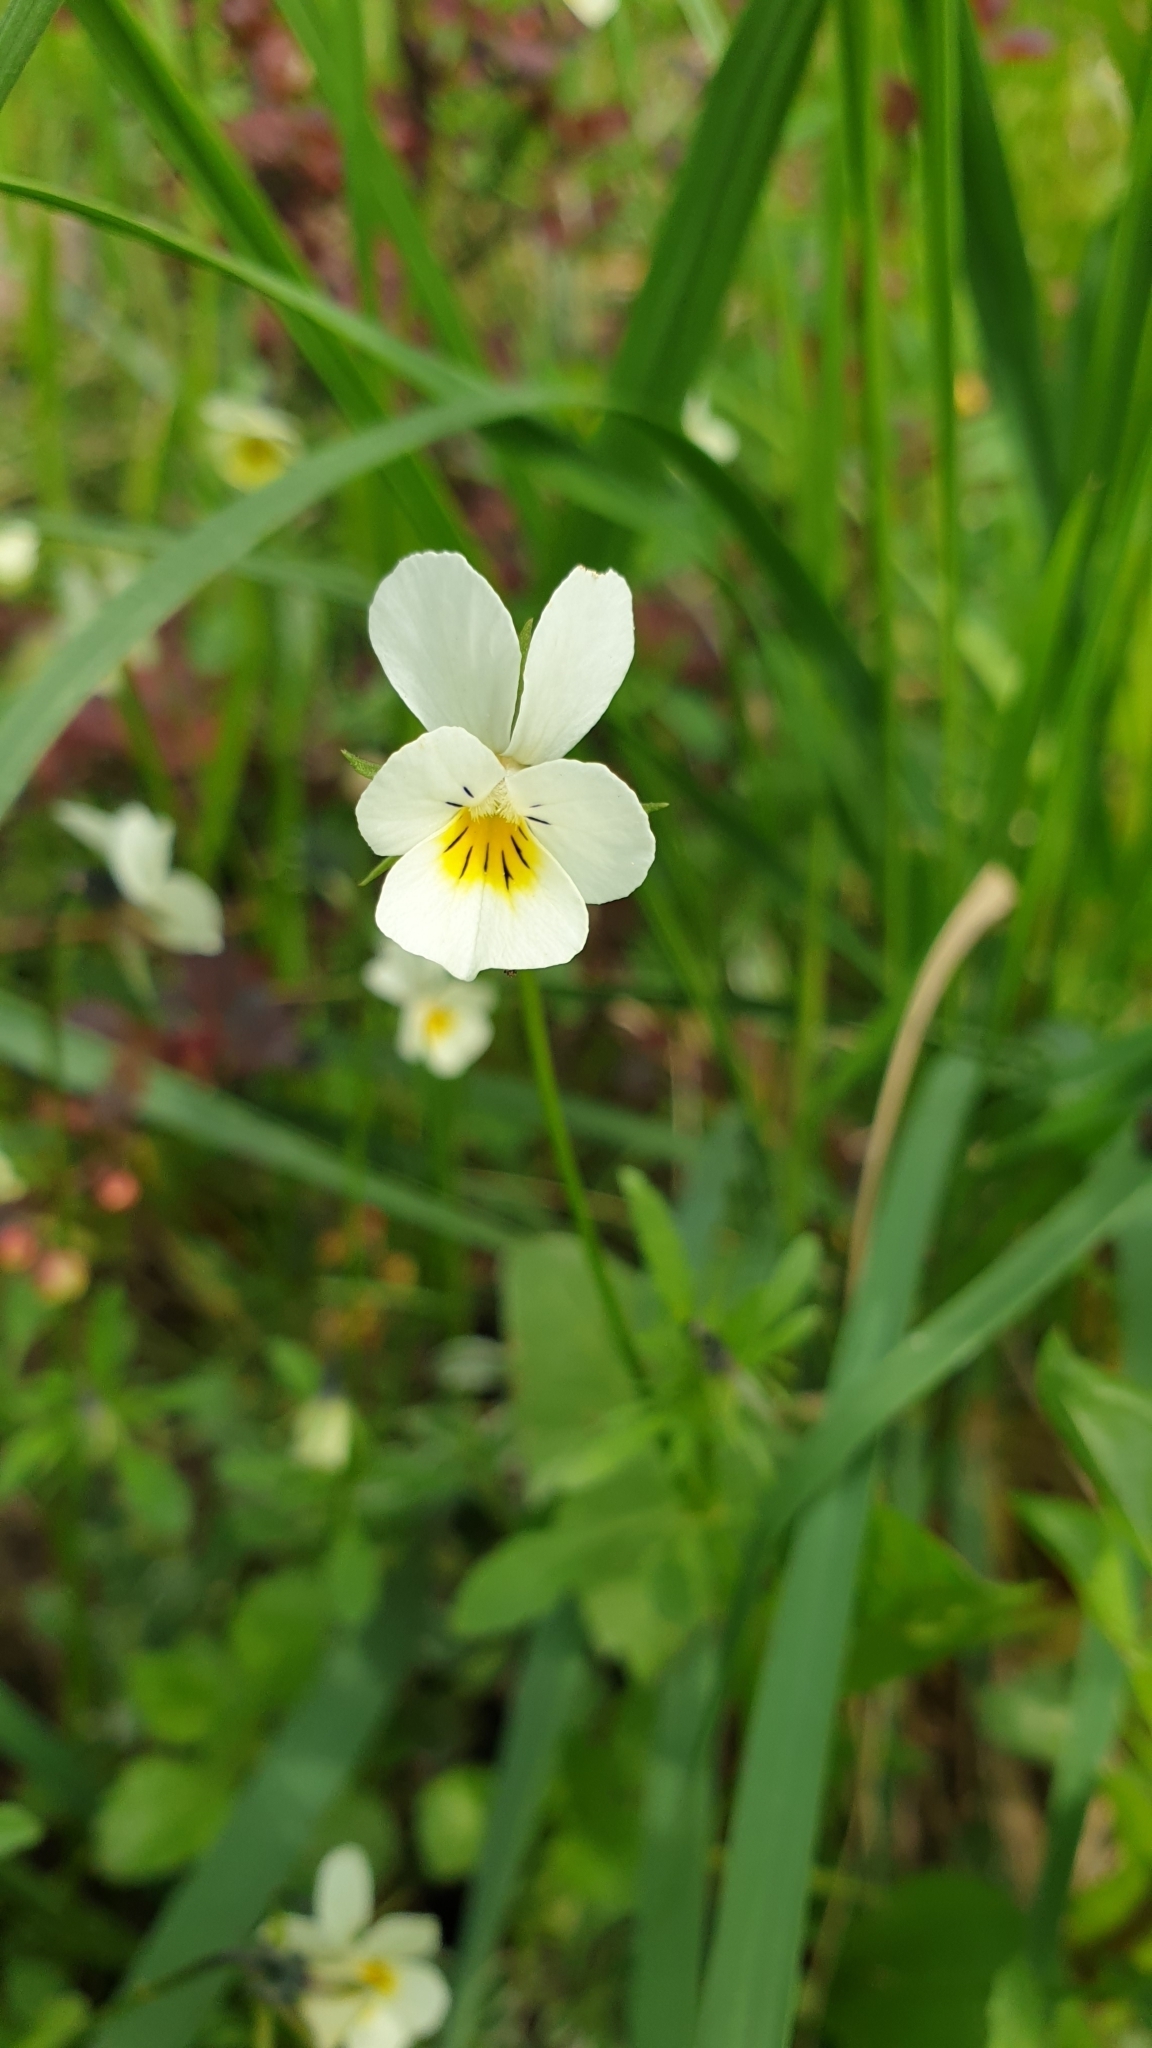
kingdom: Plantae
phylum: Tracheophyta
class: Magnoliopsida
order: Malpighiales
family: Violaceae
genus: Viola
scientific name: Viola arvensis
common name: Field pansy
